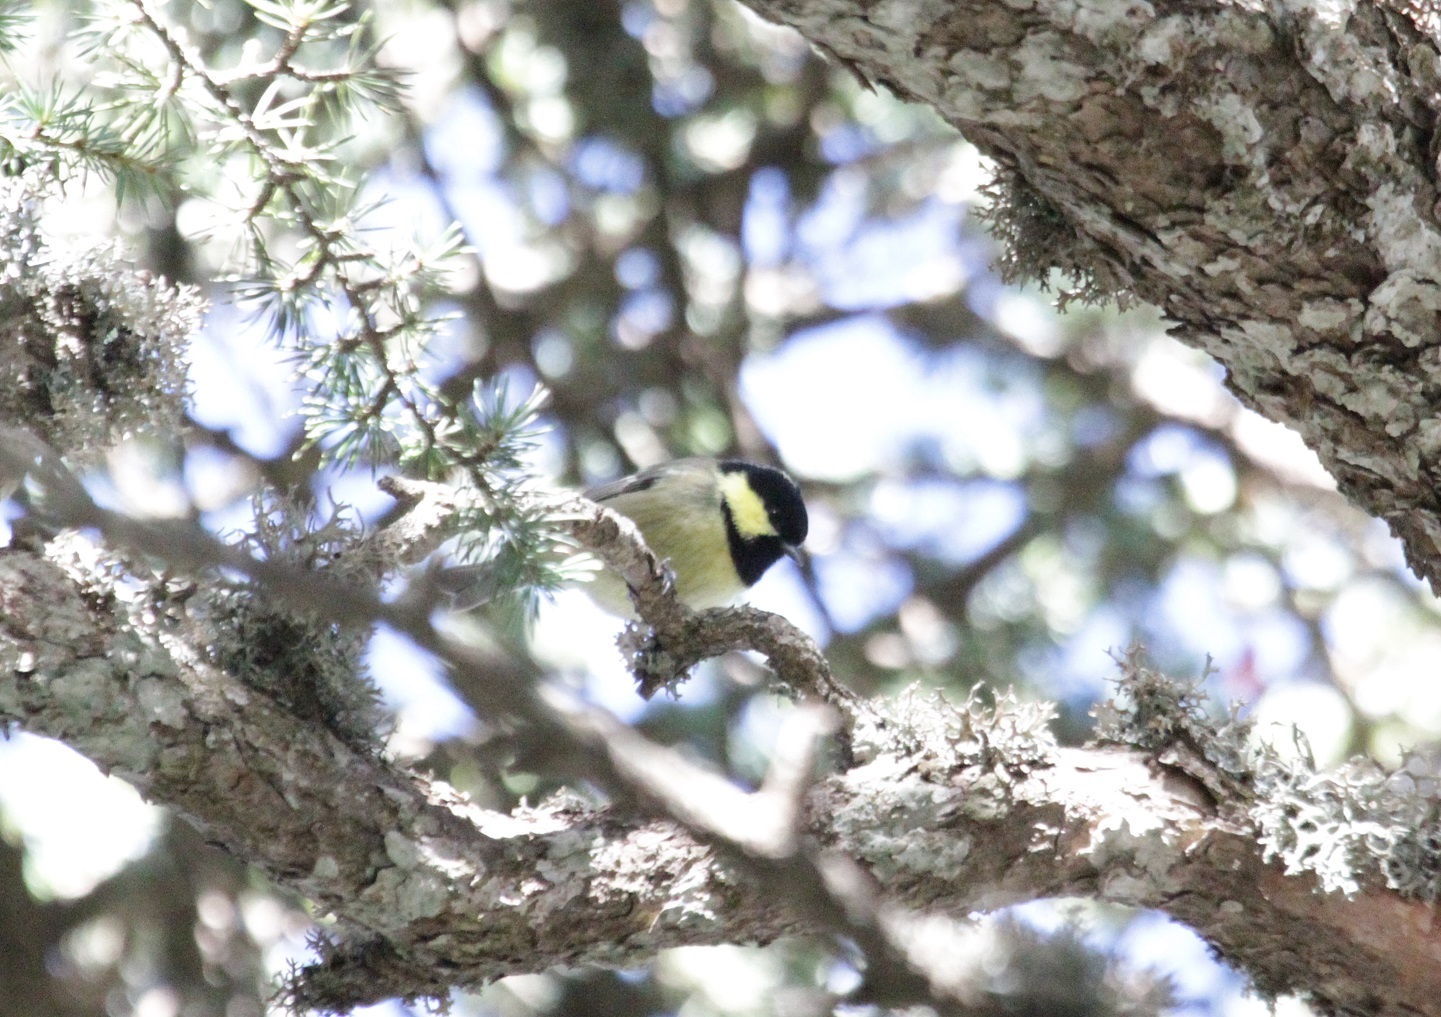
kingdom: Animalia
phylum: Chordata
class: Aves
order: Passeriformes
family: Paridae
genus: Periparus
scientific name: Periparus ater
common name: Coal tit
